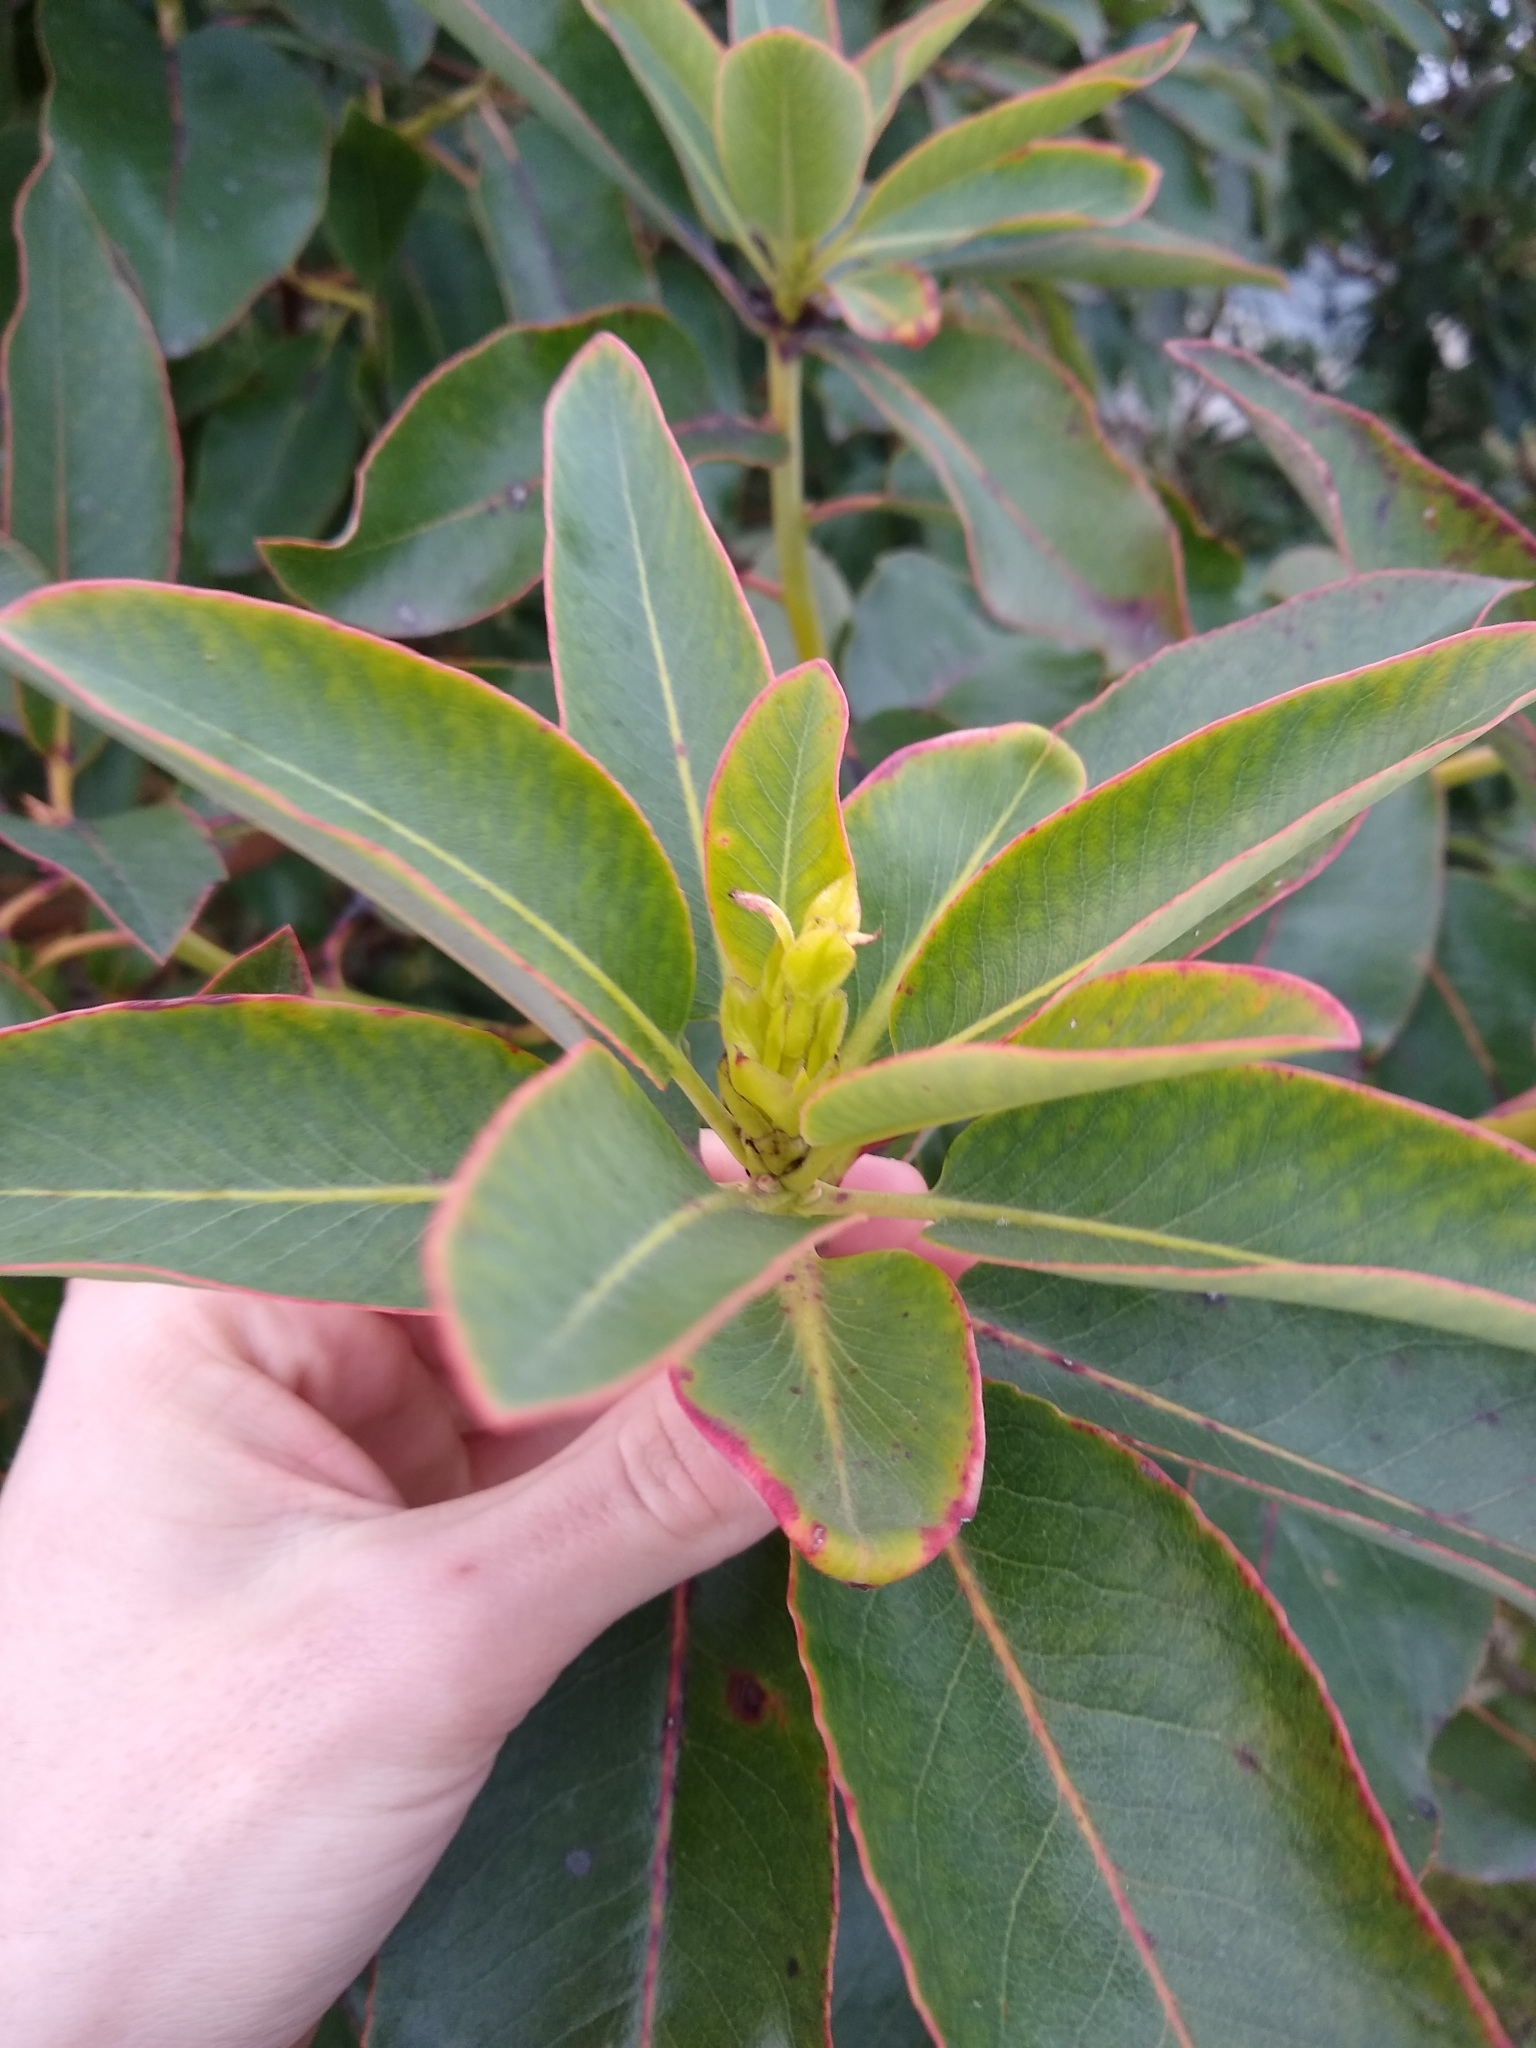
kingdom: Plantae
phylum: Tracheophyta
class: Magnoliopsida
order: Ericales
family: Ericaceae
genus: Arbutus
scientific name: Arbutus menziesii
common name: Pacific madrone
